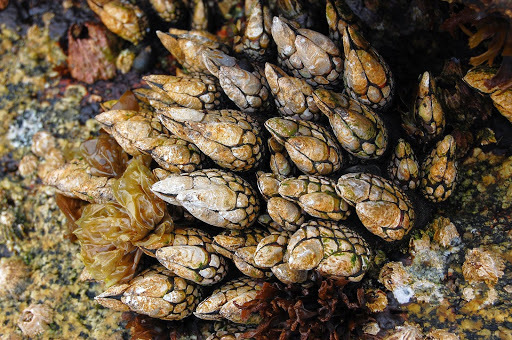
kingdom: Animalia
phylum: Arthropoda
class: Maxillopoda
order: Pedunculata
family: Pollicipedidae
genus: Pollicipes
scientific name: Pollicipes polymerus
